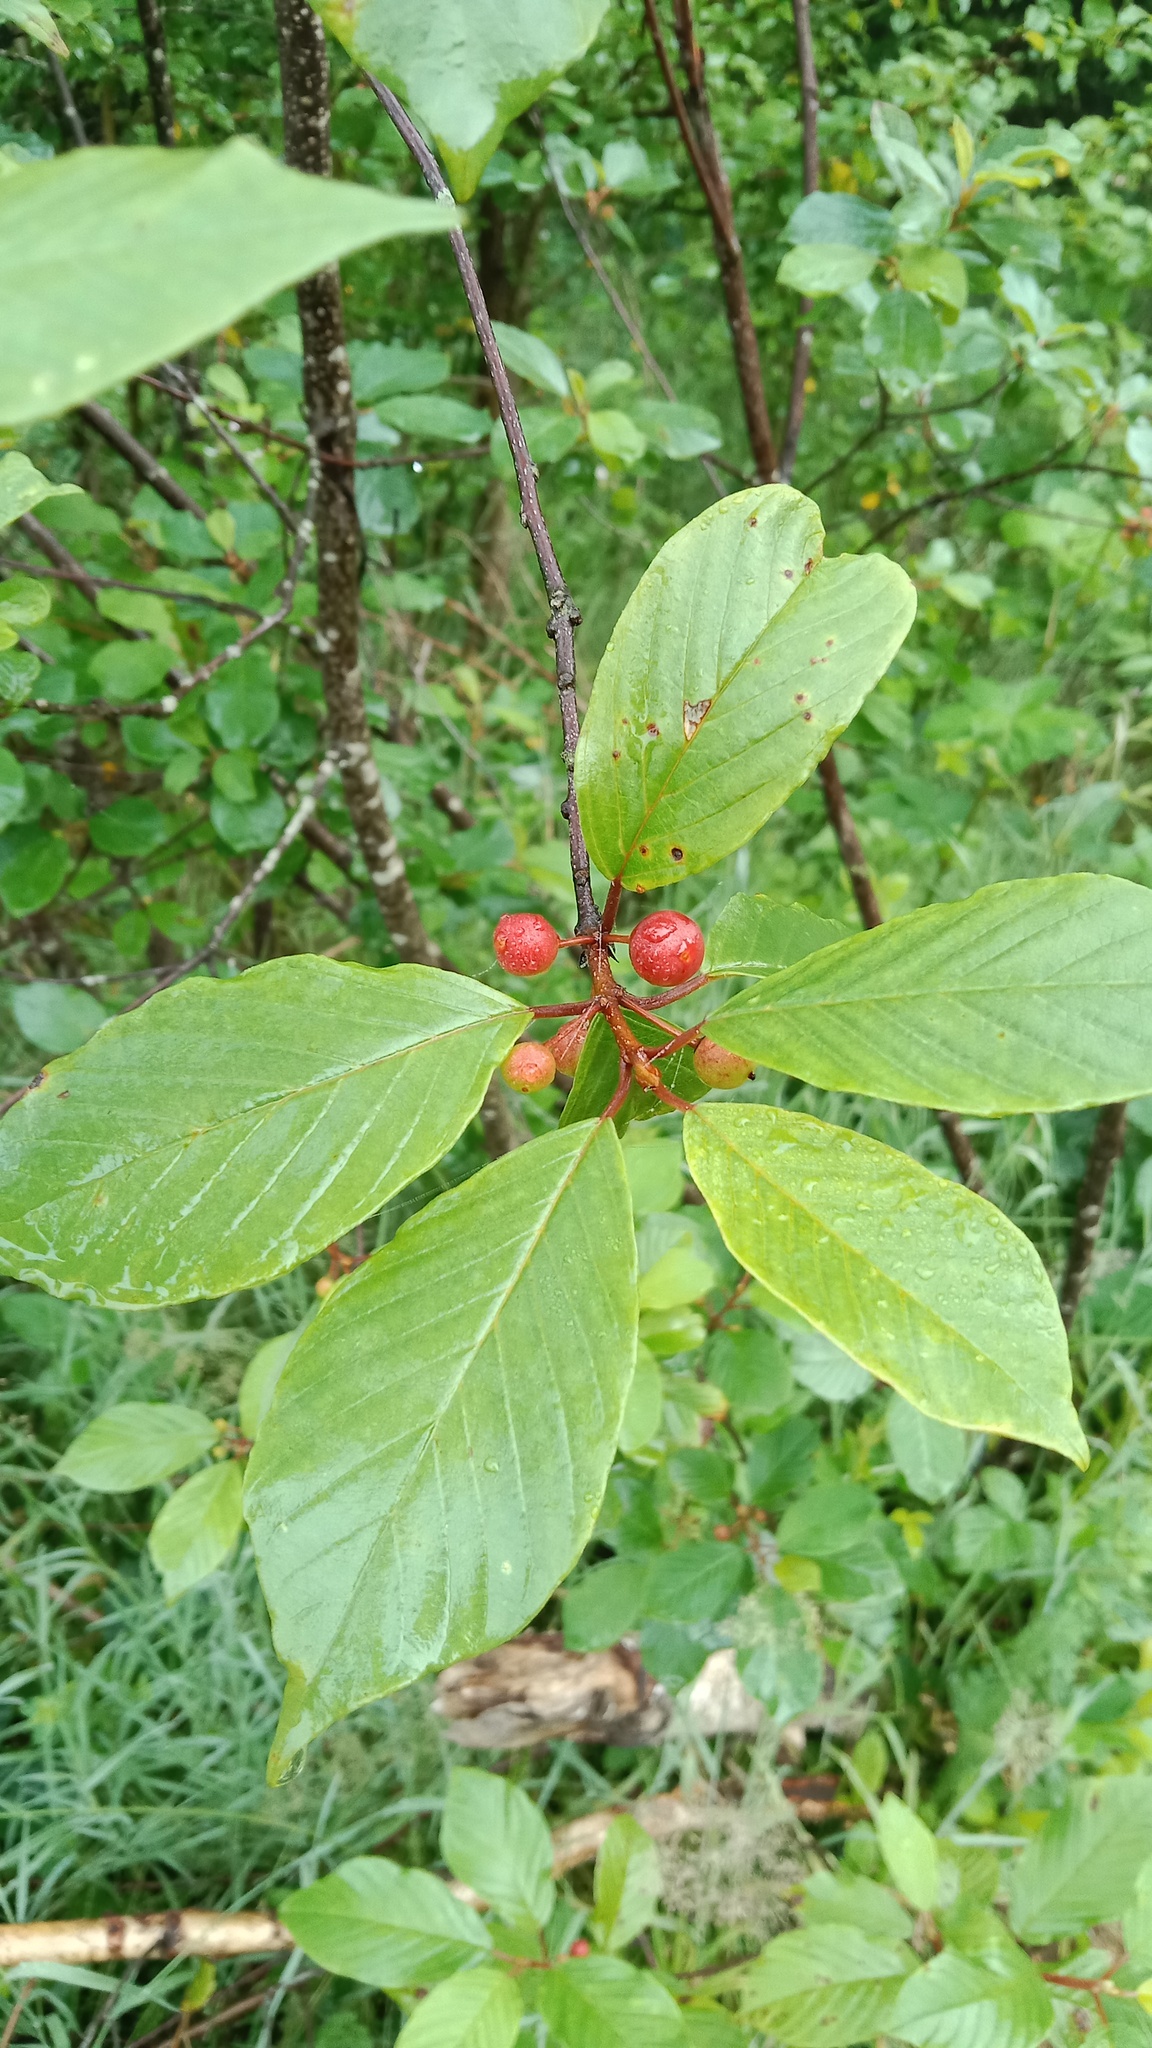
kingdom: Plantae
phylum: Tracheophyta
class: Magnoliopsida
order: Rosales
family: Rhamnaceae
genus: Frangula
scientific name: Frangula alnus
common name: Alder buckthorn
